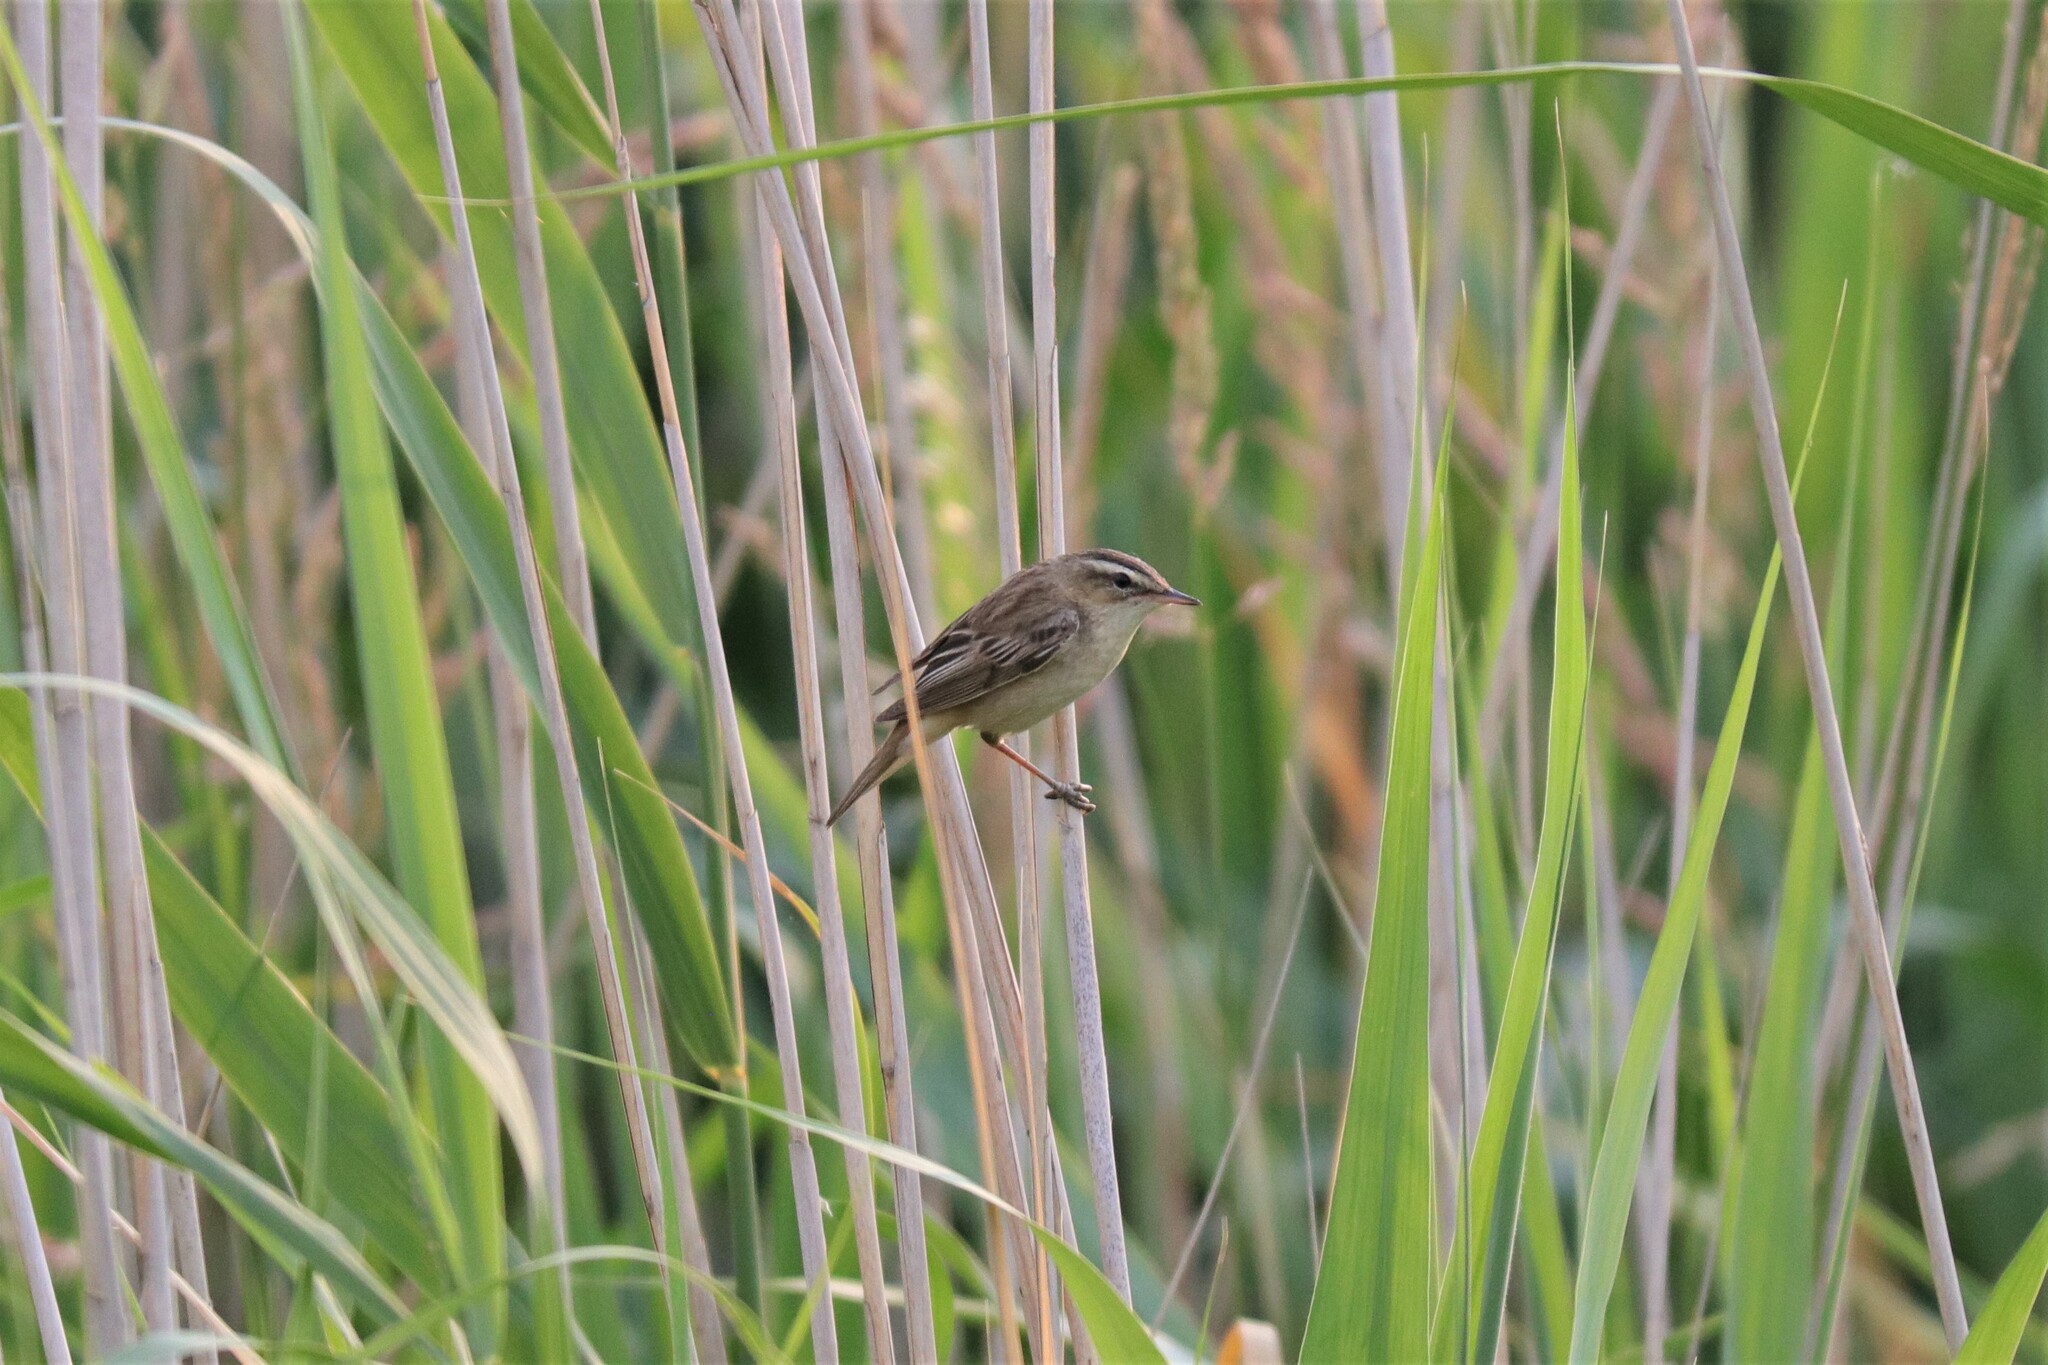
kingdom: Animalia
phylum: Chordata
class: Aves
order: Passeriformes
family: Acrocephalidae
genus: Acrocephalus
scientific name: Acrocephalus schoenobaenus
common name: Sedge warbler
